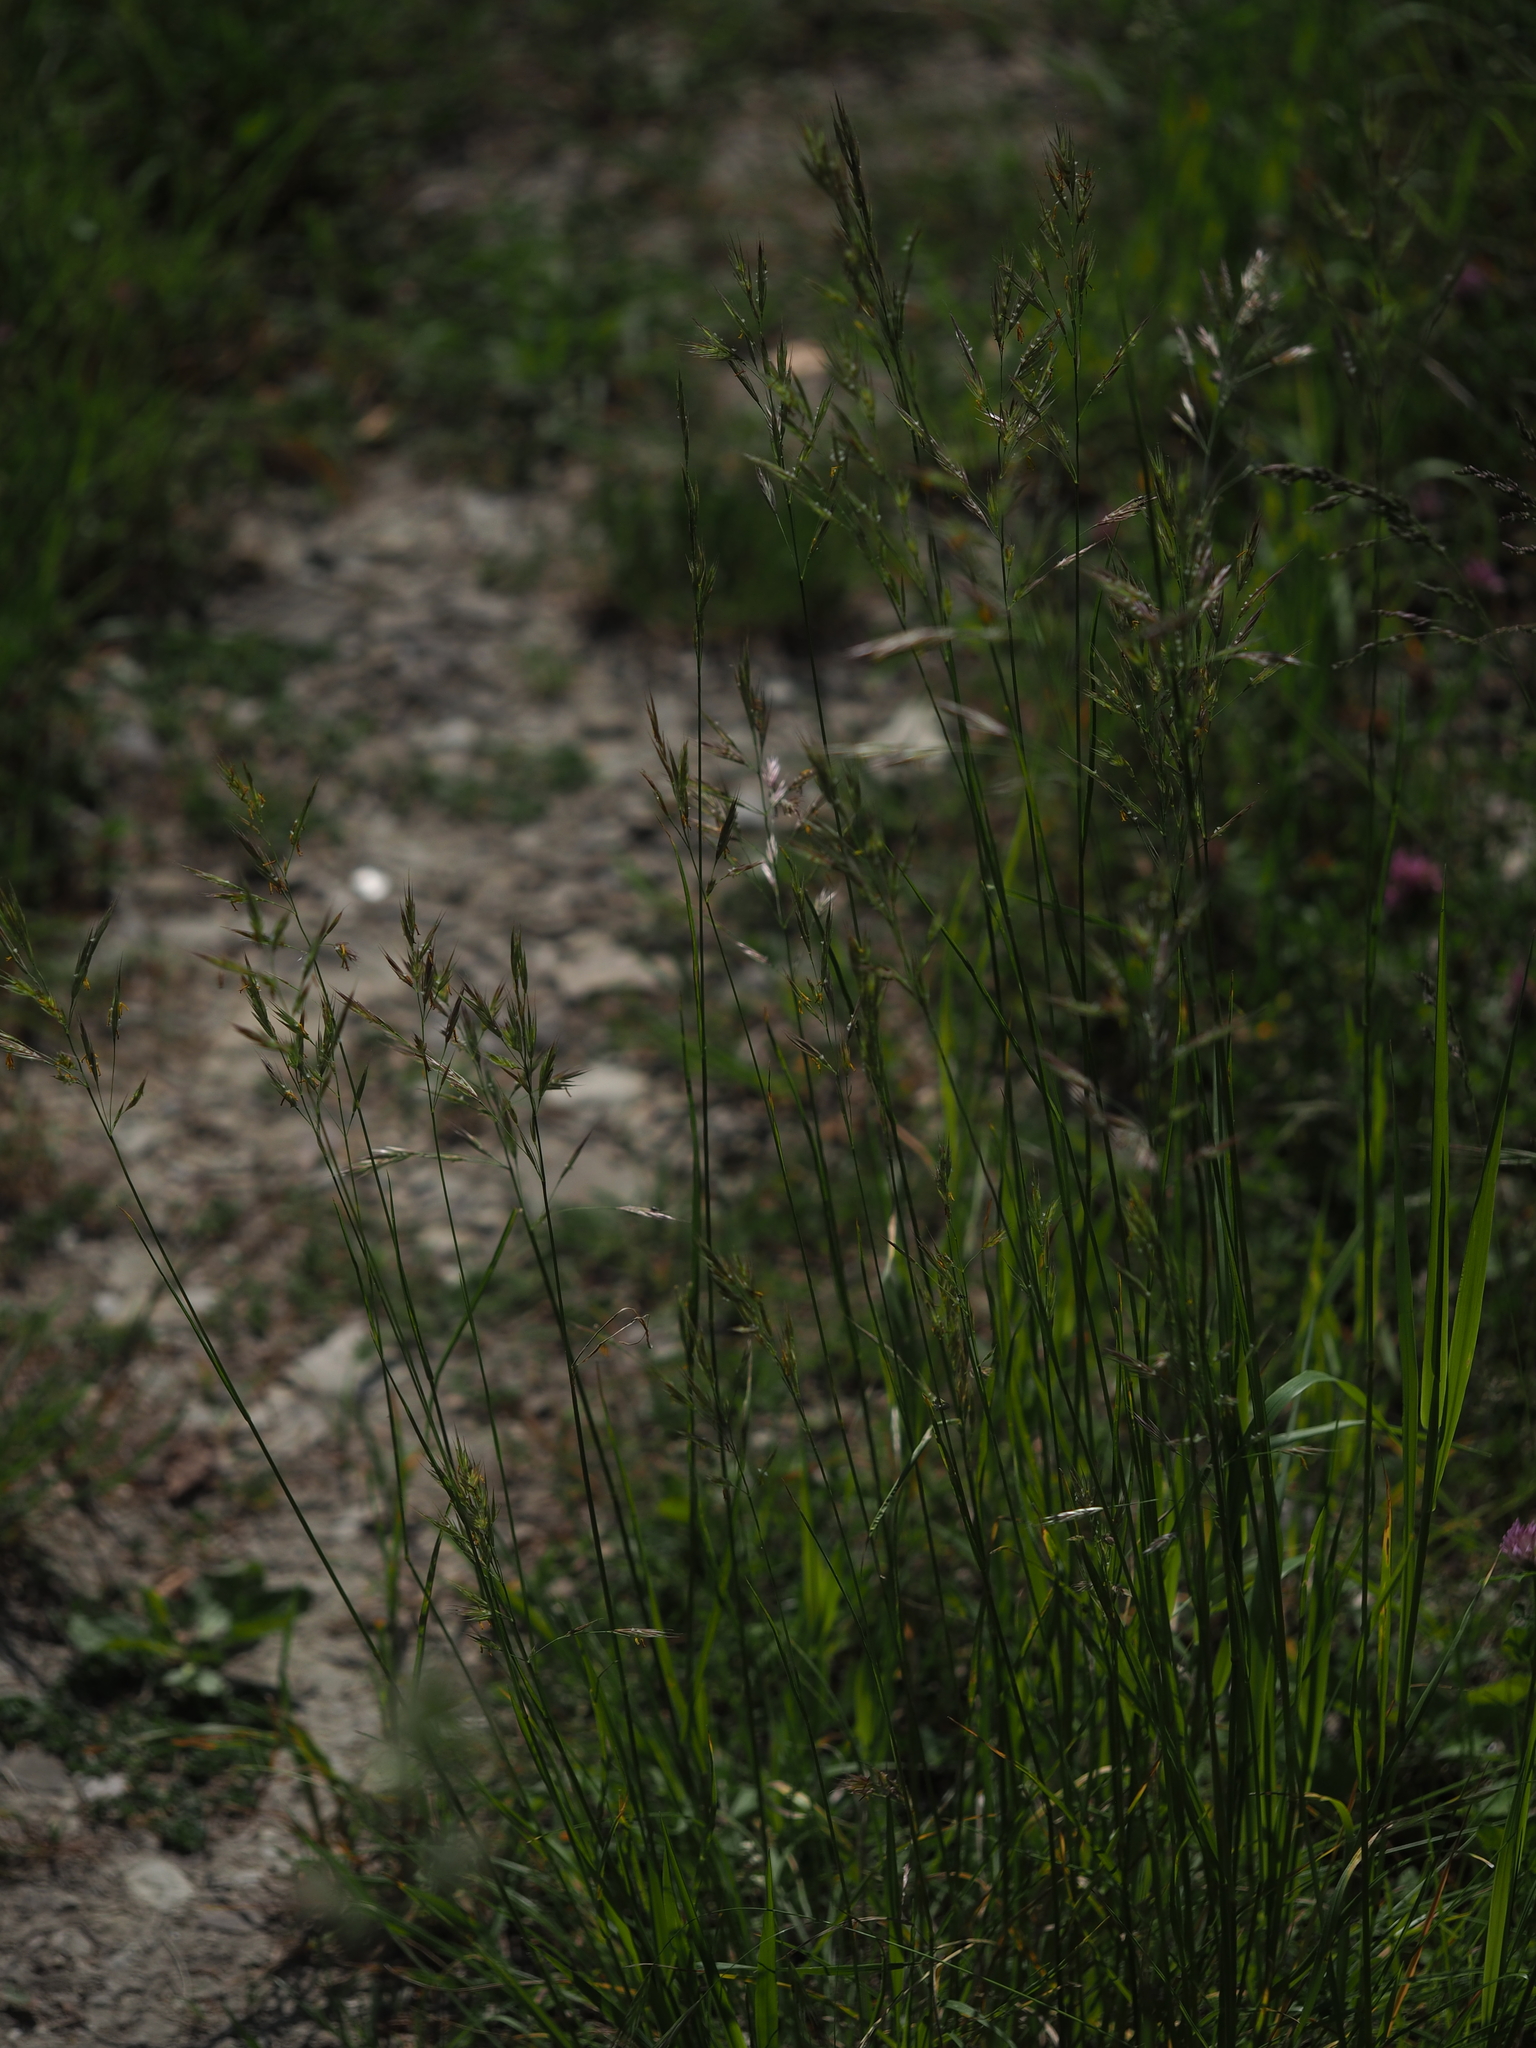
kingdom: Plantae
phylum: Tracheophyta
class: Liliopsida
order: Poales
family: Poaceae
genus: Bromus
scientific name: Bromus erectus
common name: Erect brome
